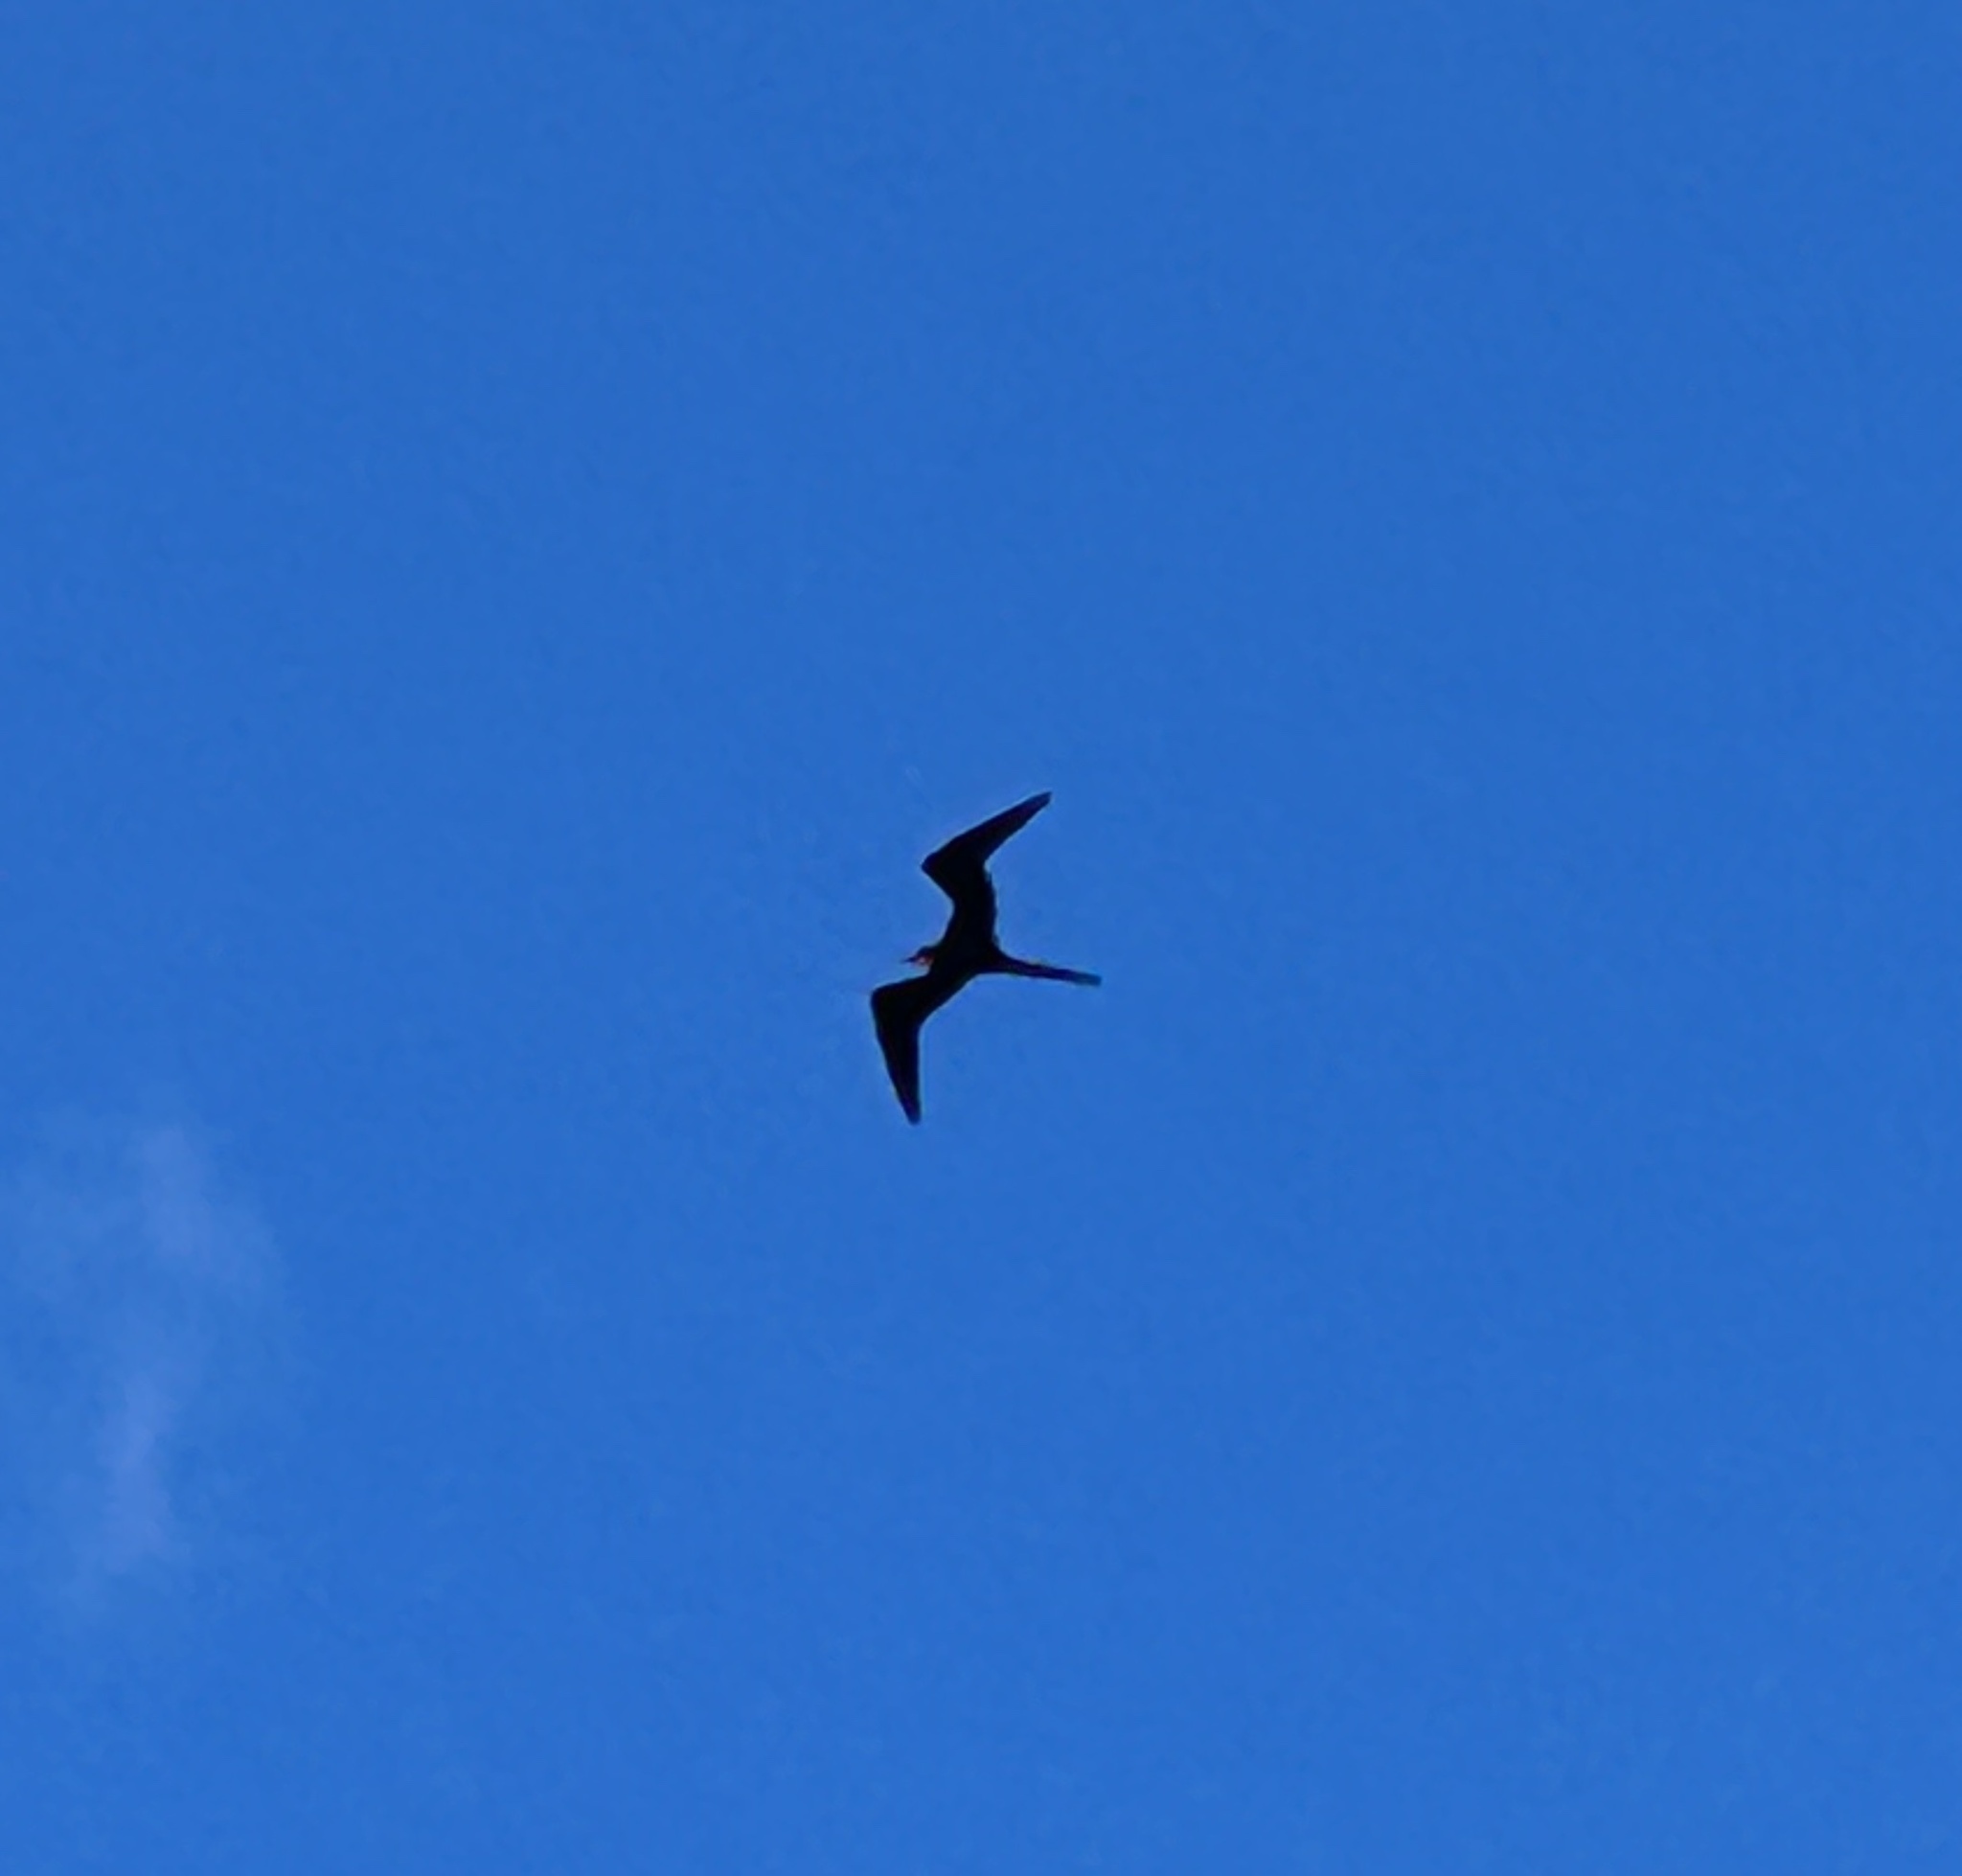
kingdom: Animalia
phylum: Chordata
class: Aves
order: Suliformes
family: Fregatidae
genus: Fregata
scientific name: Fregata magnificens
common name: Magnificent frigatebird
